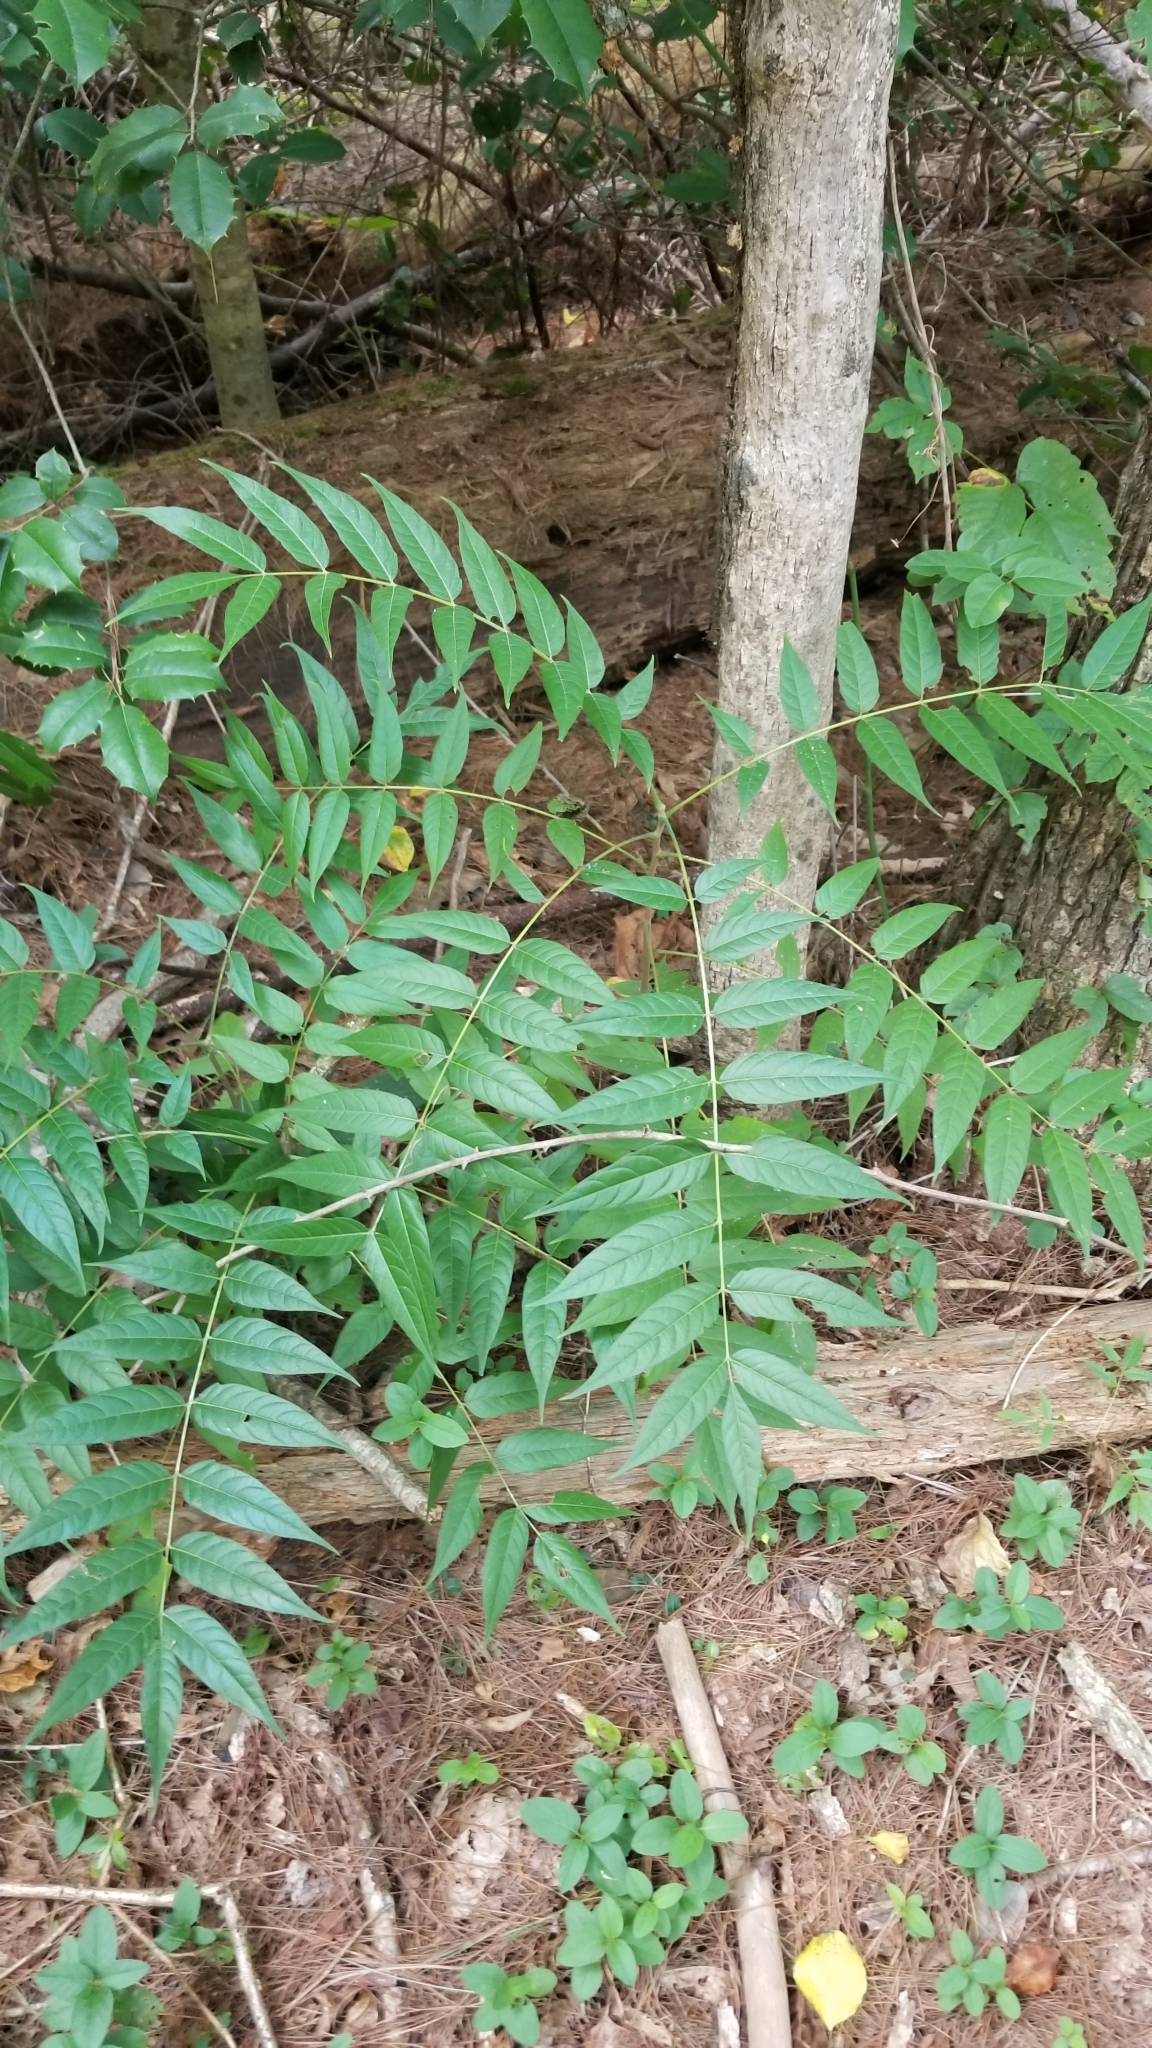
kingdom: Plantae
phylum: Tracheophyta
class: Magnoliopsida
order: Sapindales
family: Simaroubaceae
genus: Ailanthus
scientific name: Ailanthus altissima
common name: Tree-of-heaven
